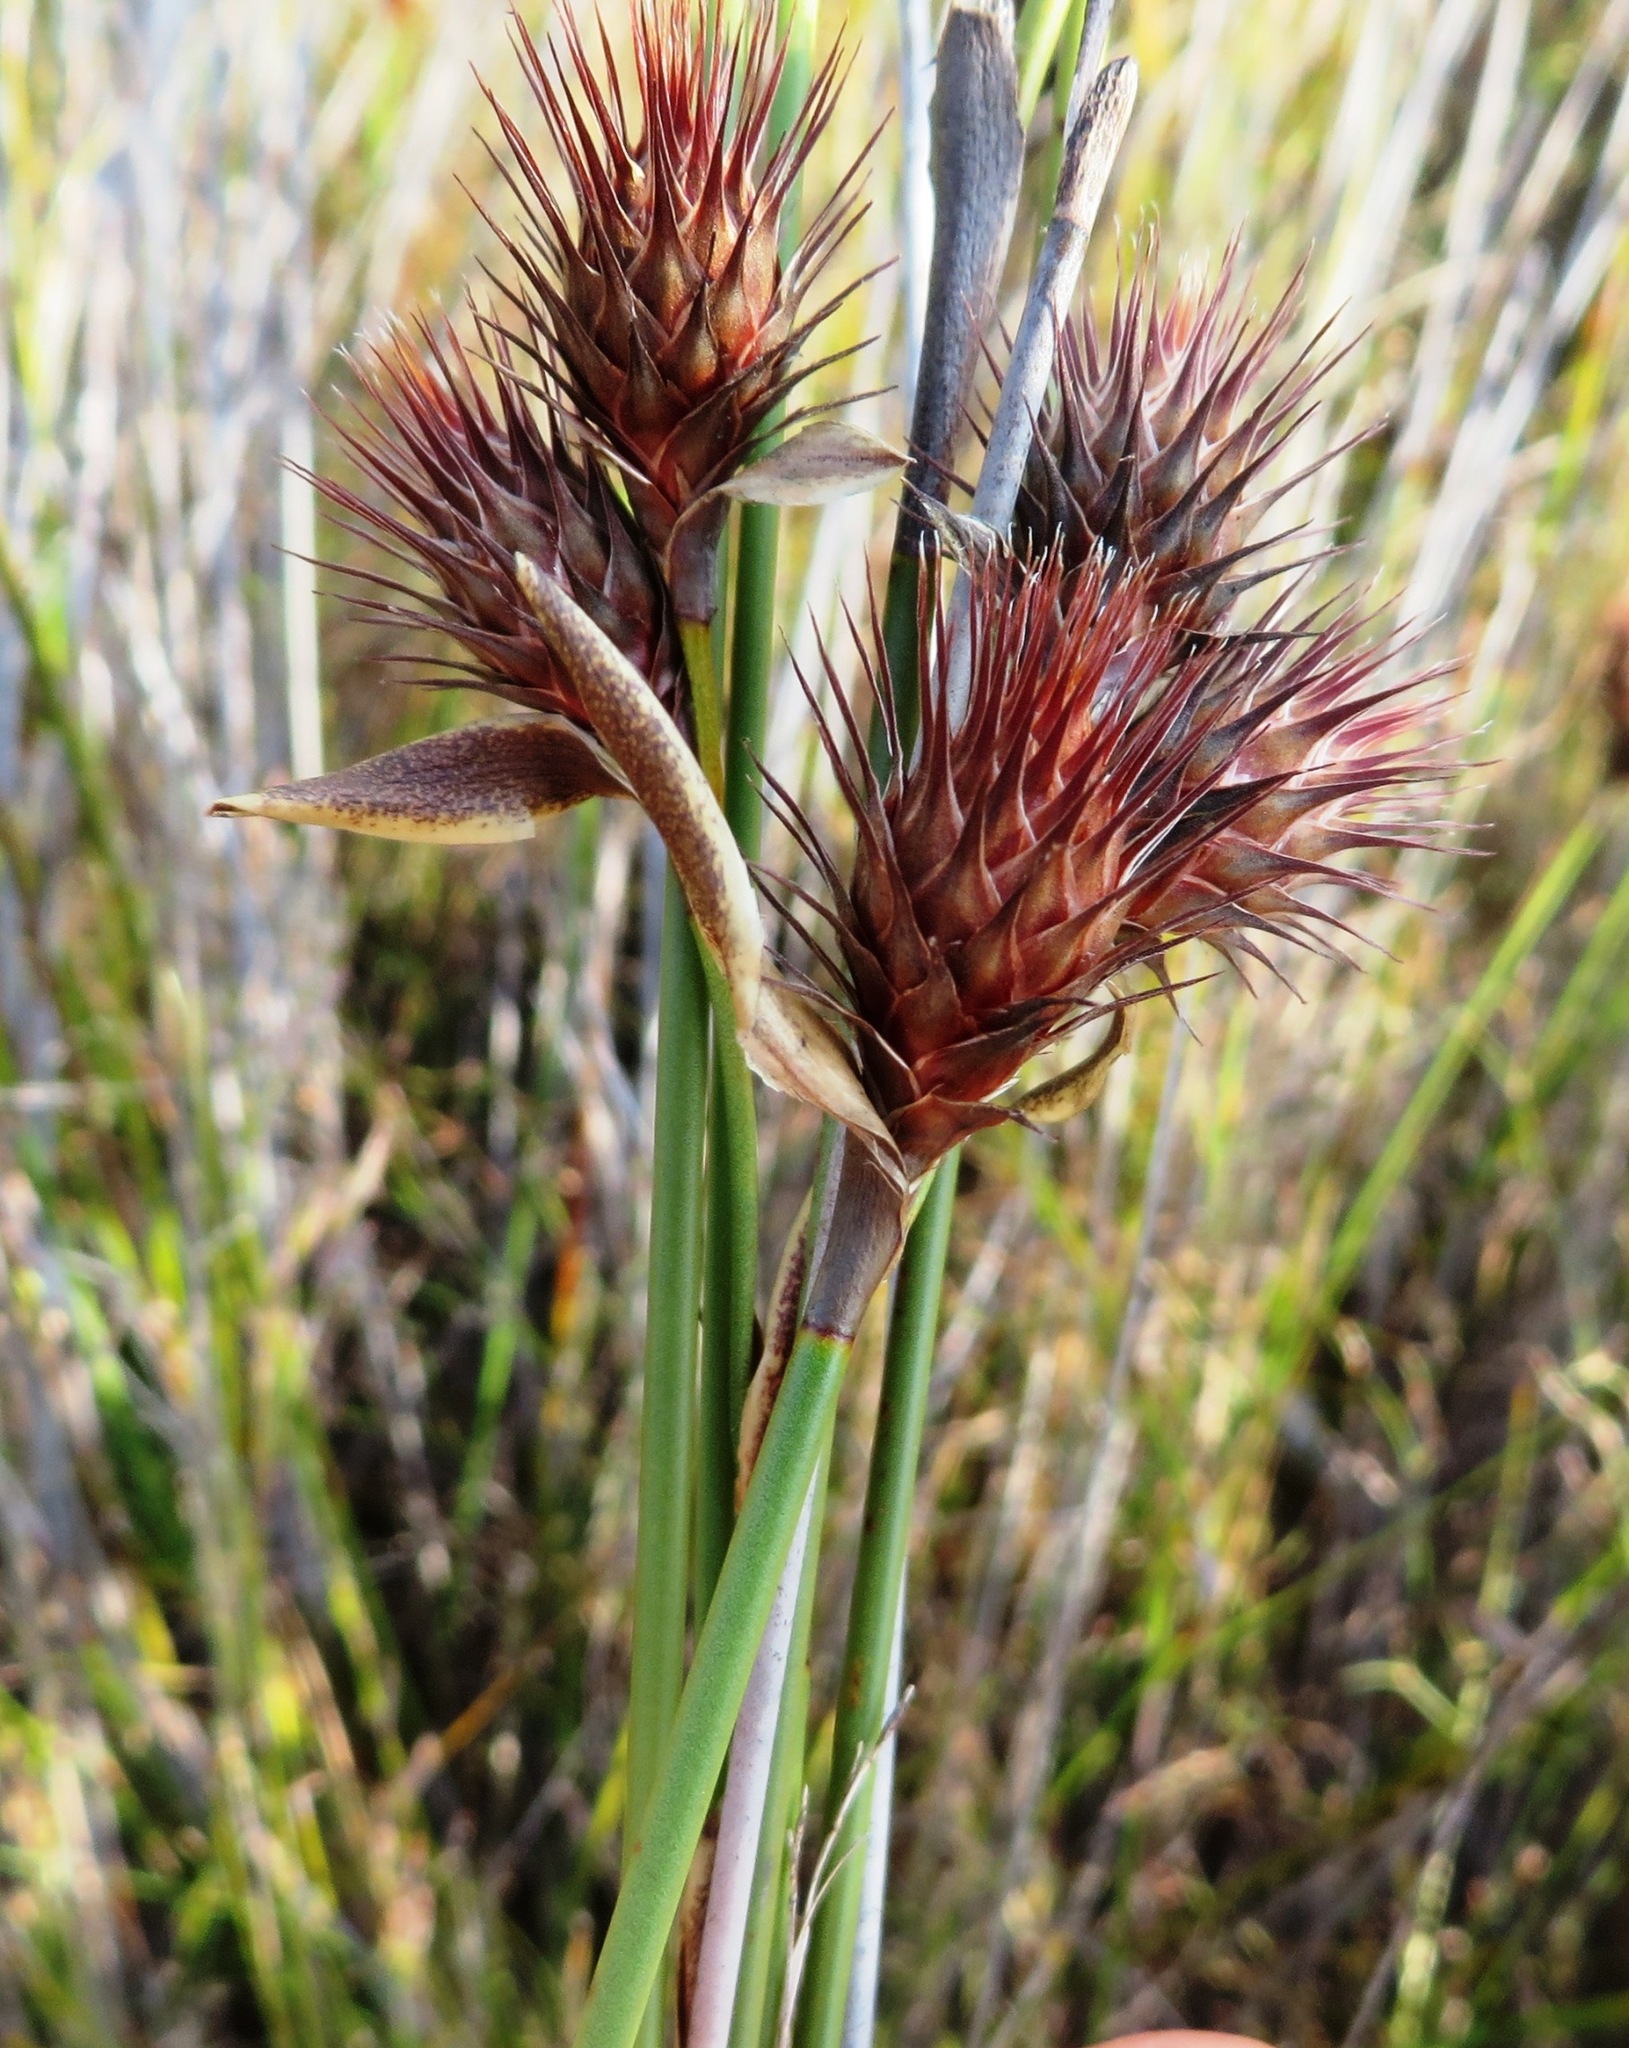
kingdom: Plantae
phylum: Tracheophyta
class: Liliopsida
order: Poales
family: Restionaceae
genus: Hypodiscus
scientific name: Hypodiscus aristatus
